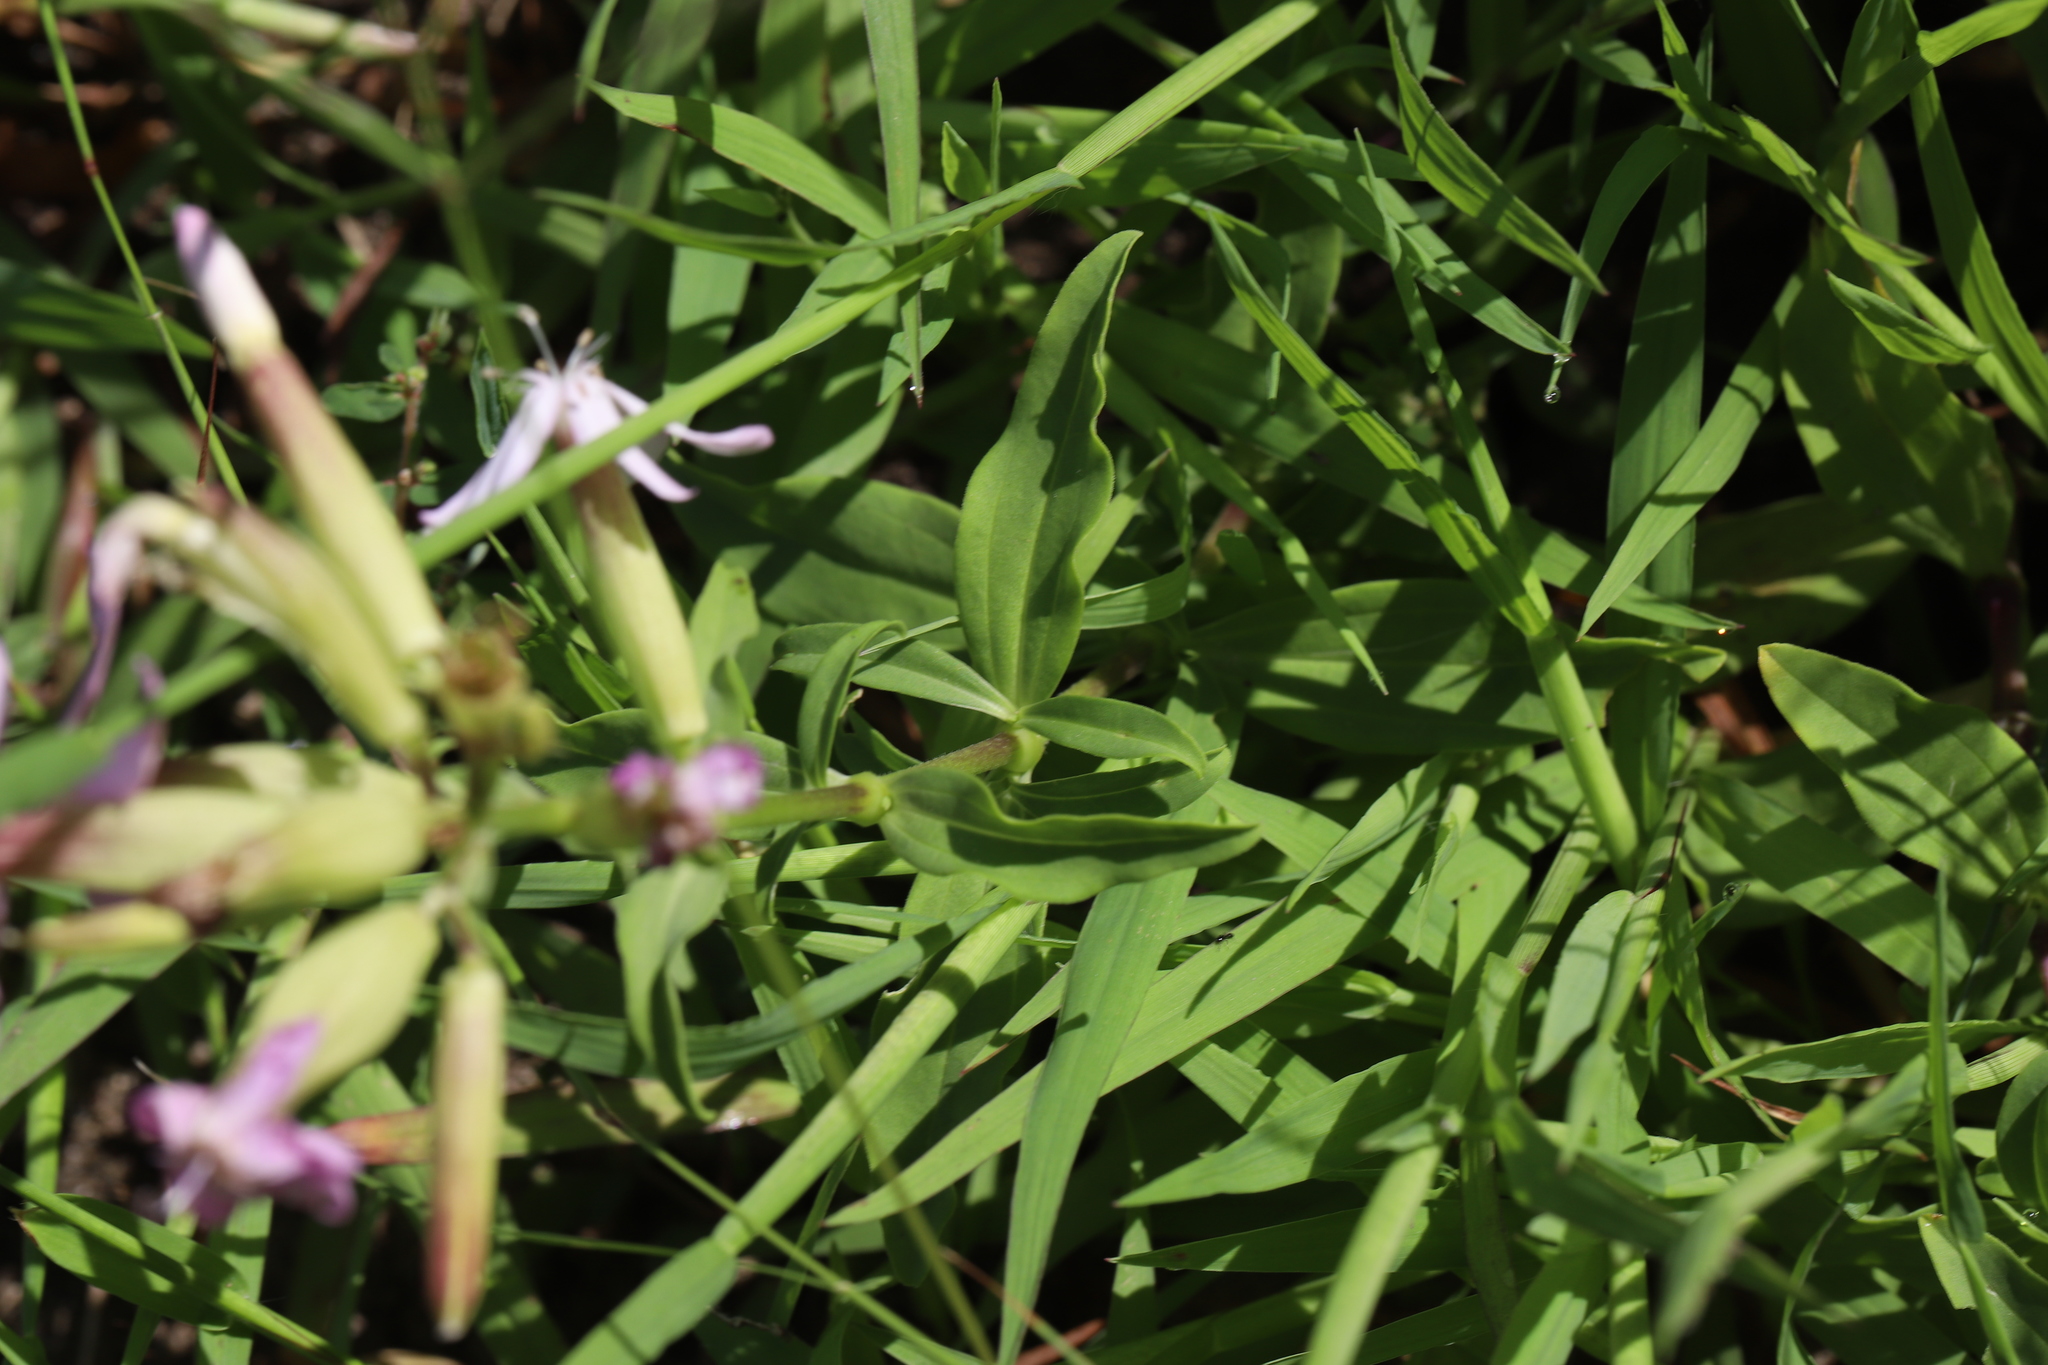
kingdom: Plantae
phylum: Tracheophyta
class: Magnoliopsida
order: Caryophyllales
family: Caryophyllaceae
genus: Saponaria
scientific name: Saponaria officinalis
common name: Soapwort
